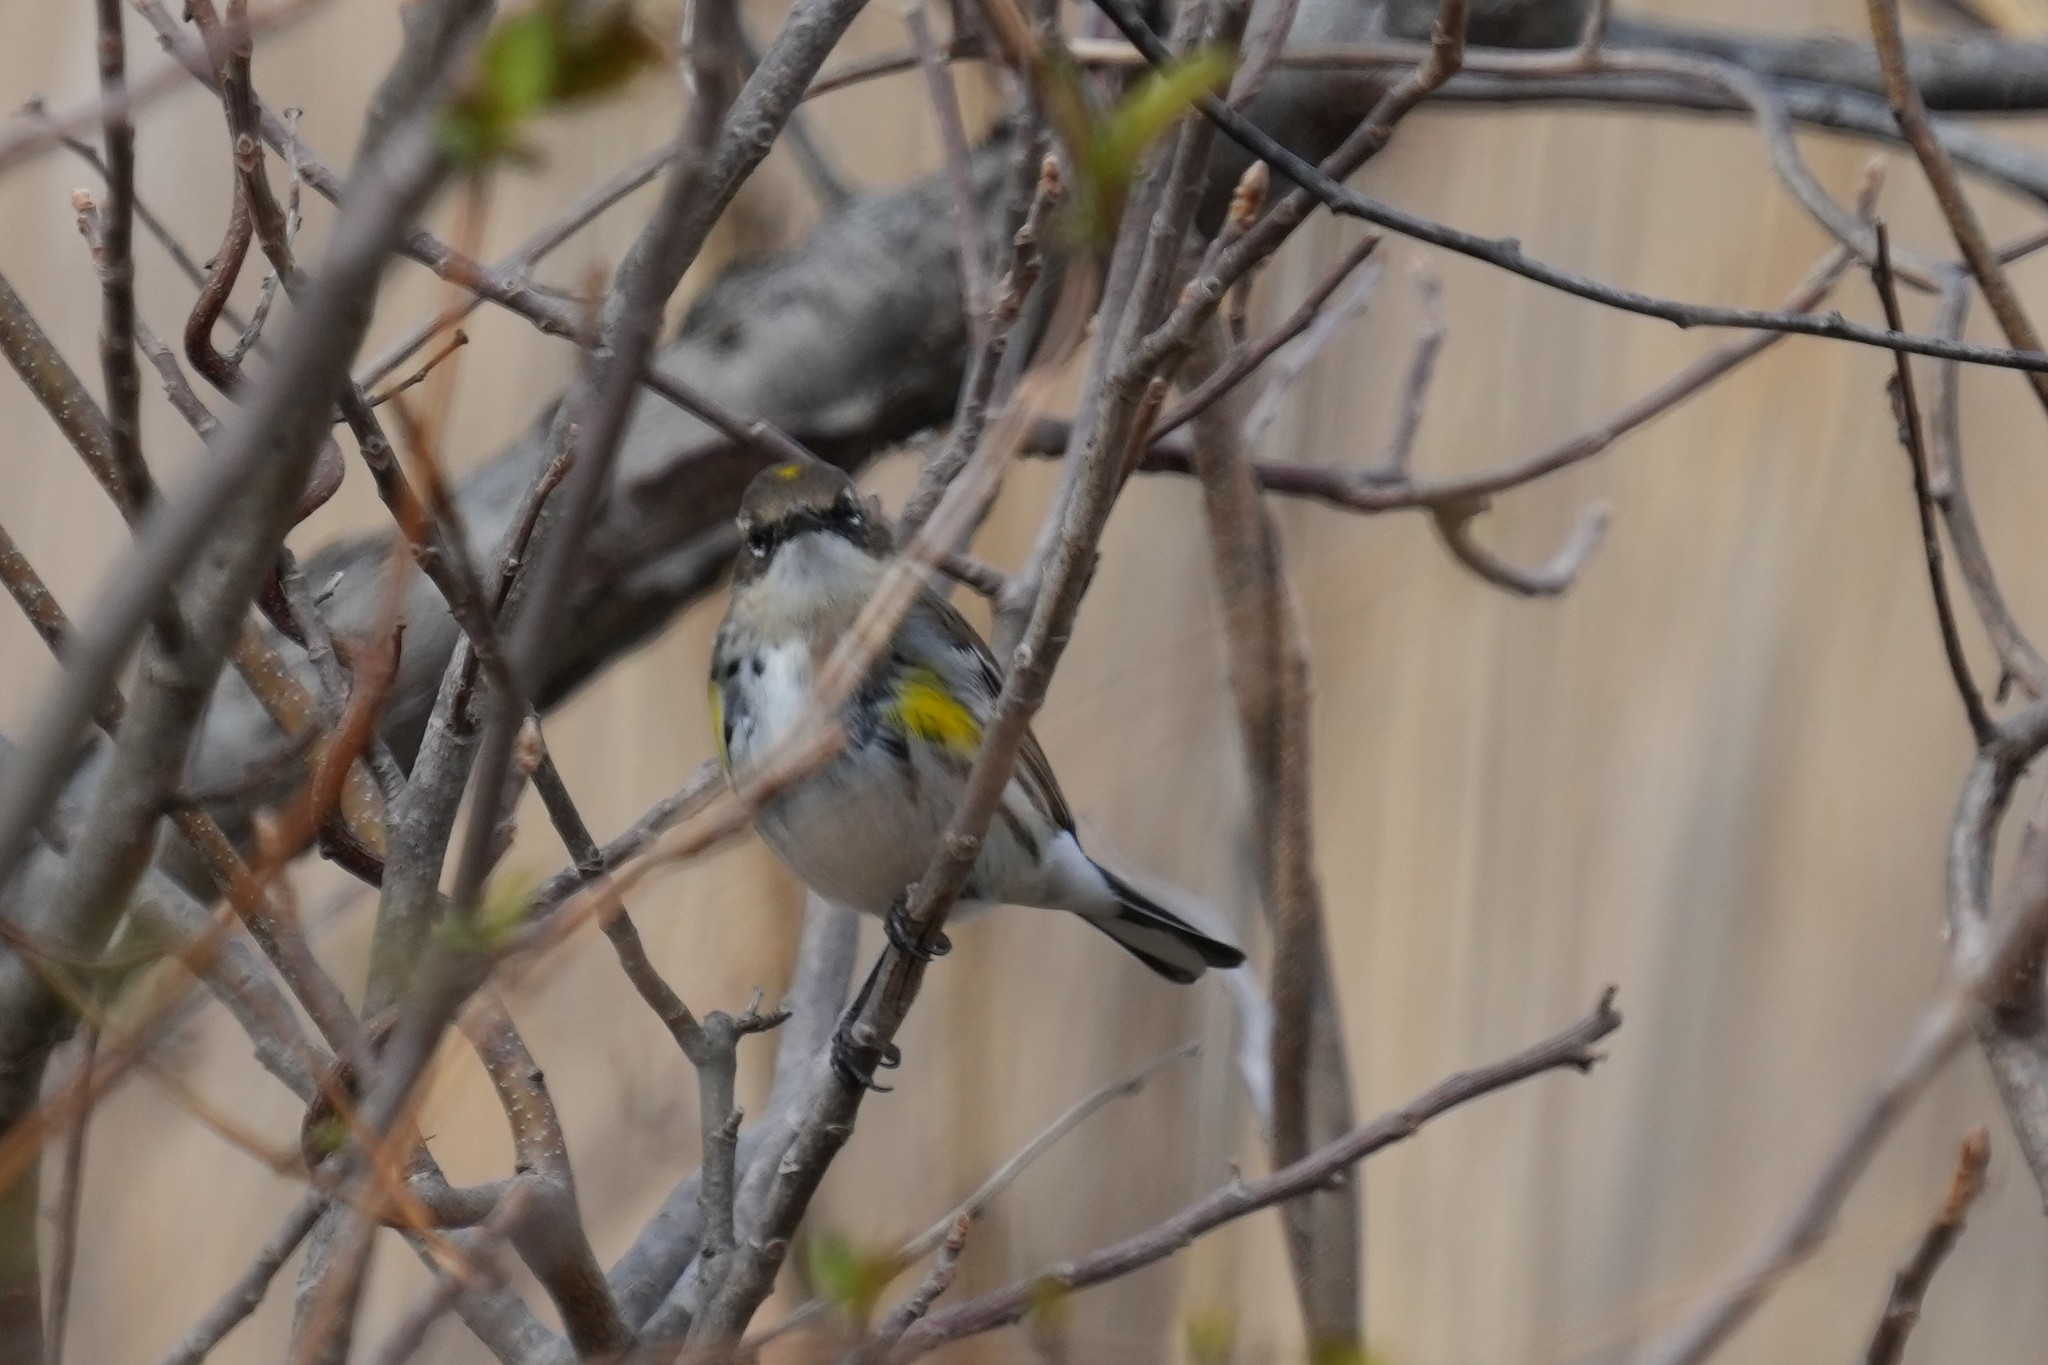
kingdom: Animalia
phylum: Chordata
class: Aves
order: Passeriformes
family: Parulidae
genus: Setophaga
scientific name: Setophaga coronata
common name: Myrtle warbler
